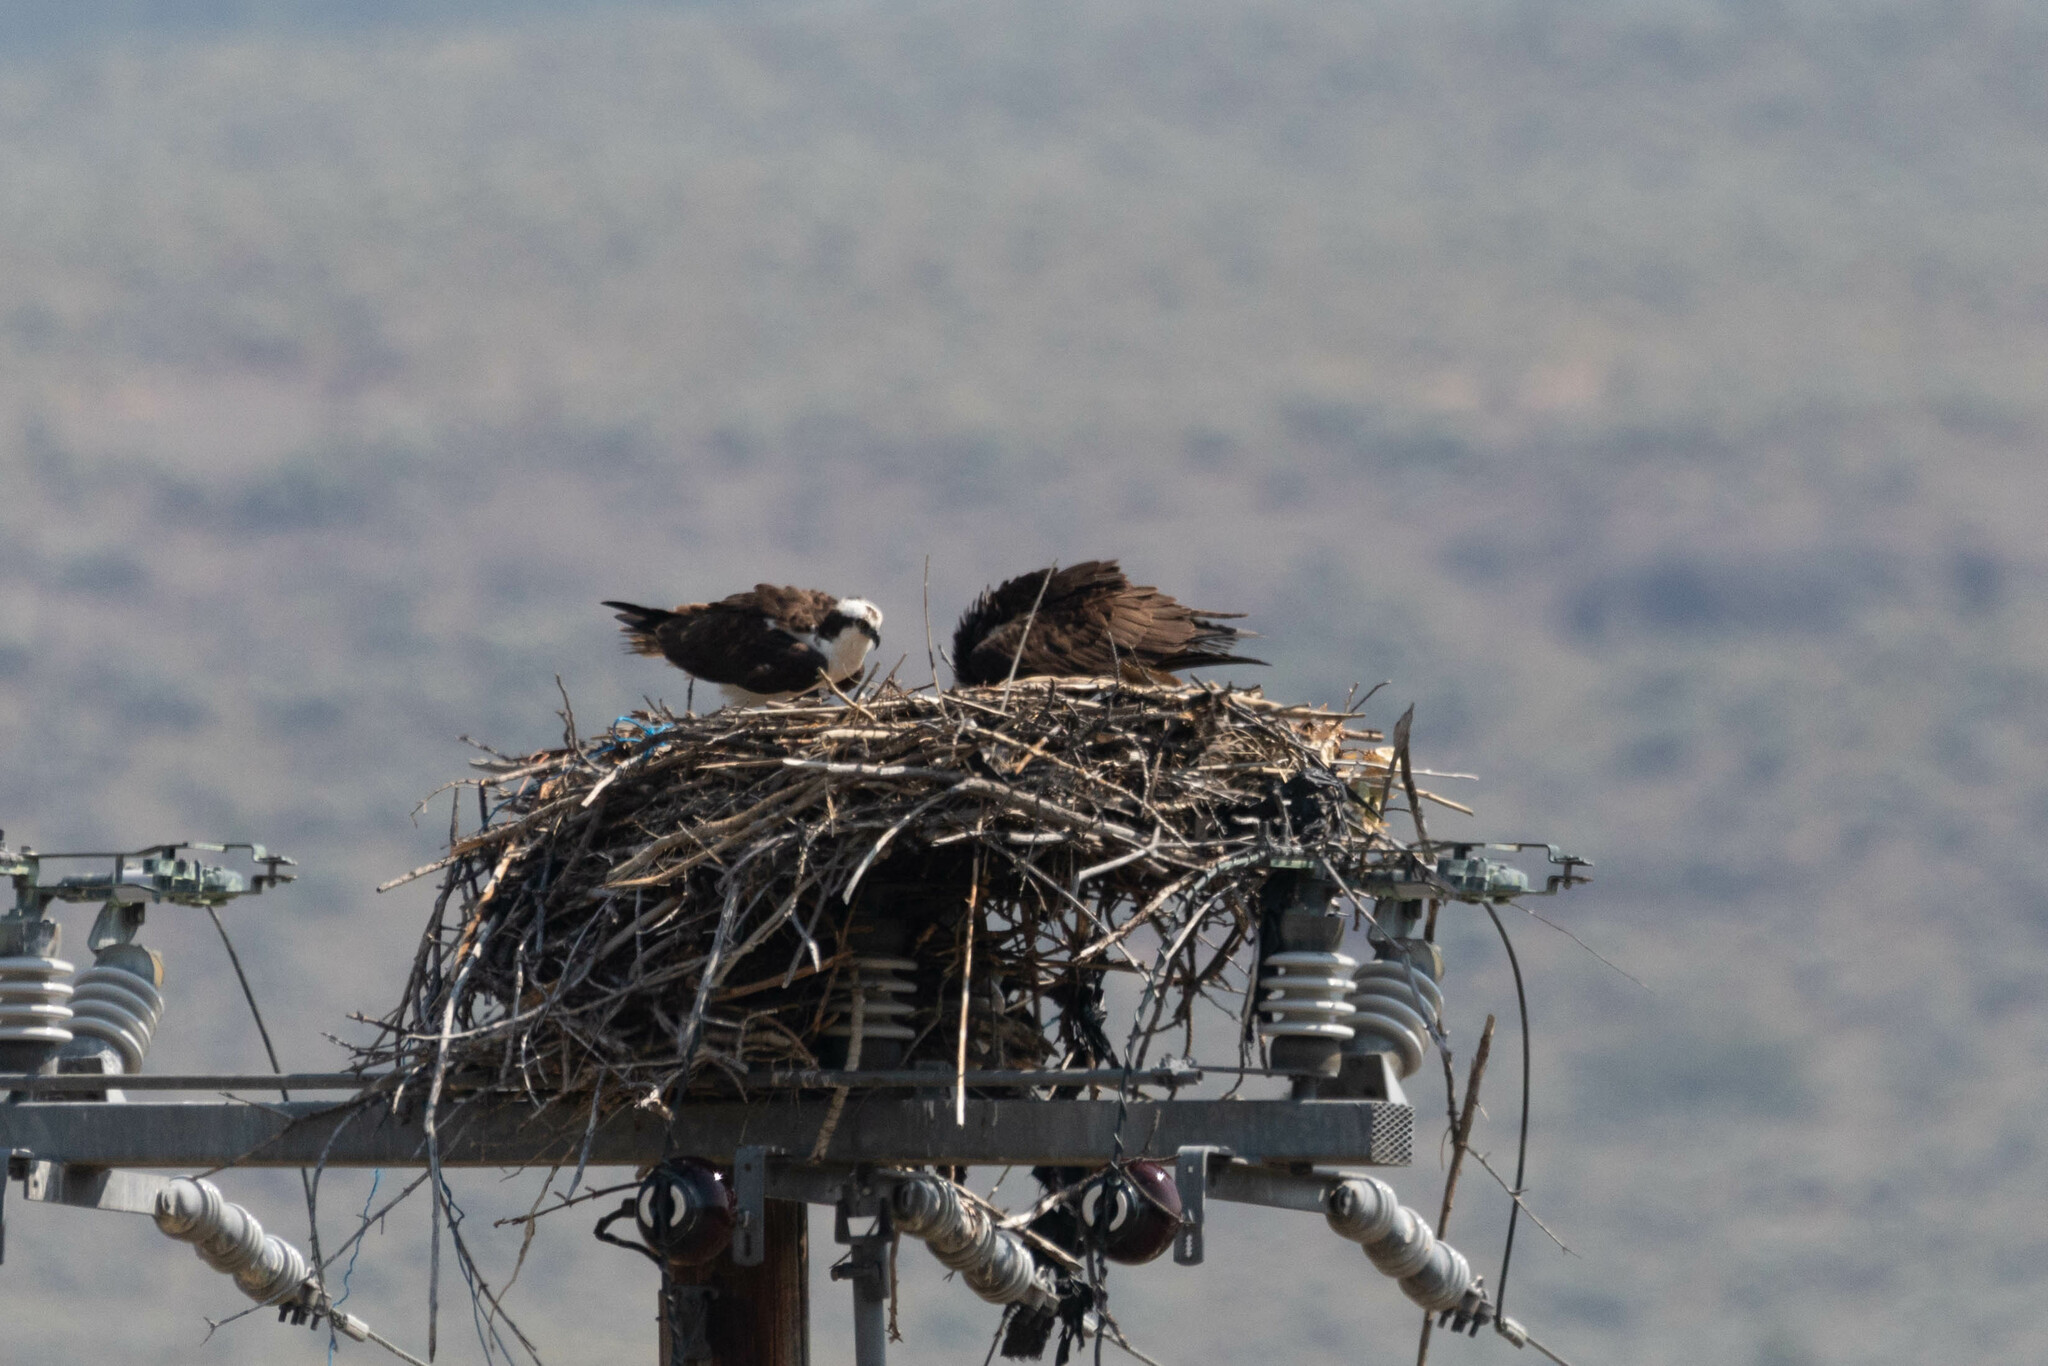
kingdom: Animalia
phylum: Chordata
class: Aves
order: Accipitriformes
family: Pandionidae
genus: Pandion
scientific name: Pandion haliaetus
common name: Osprey
